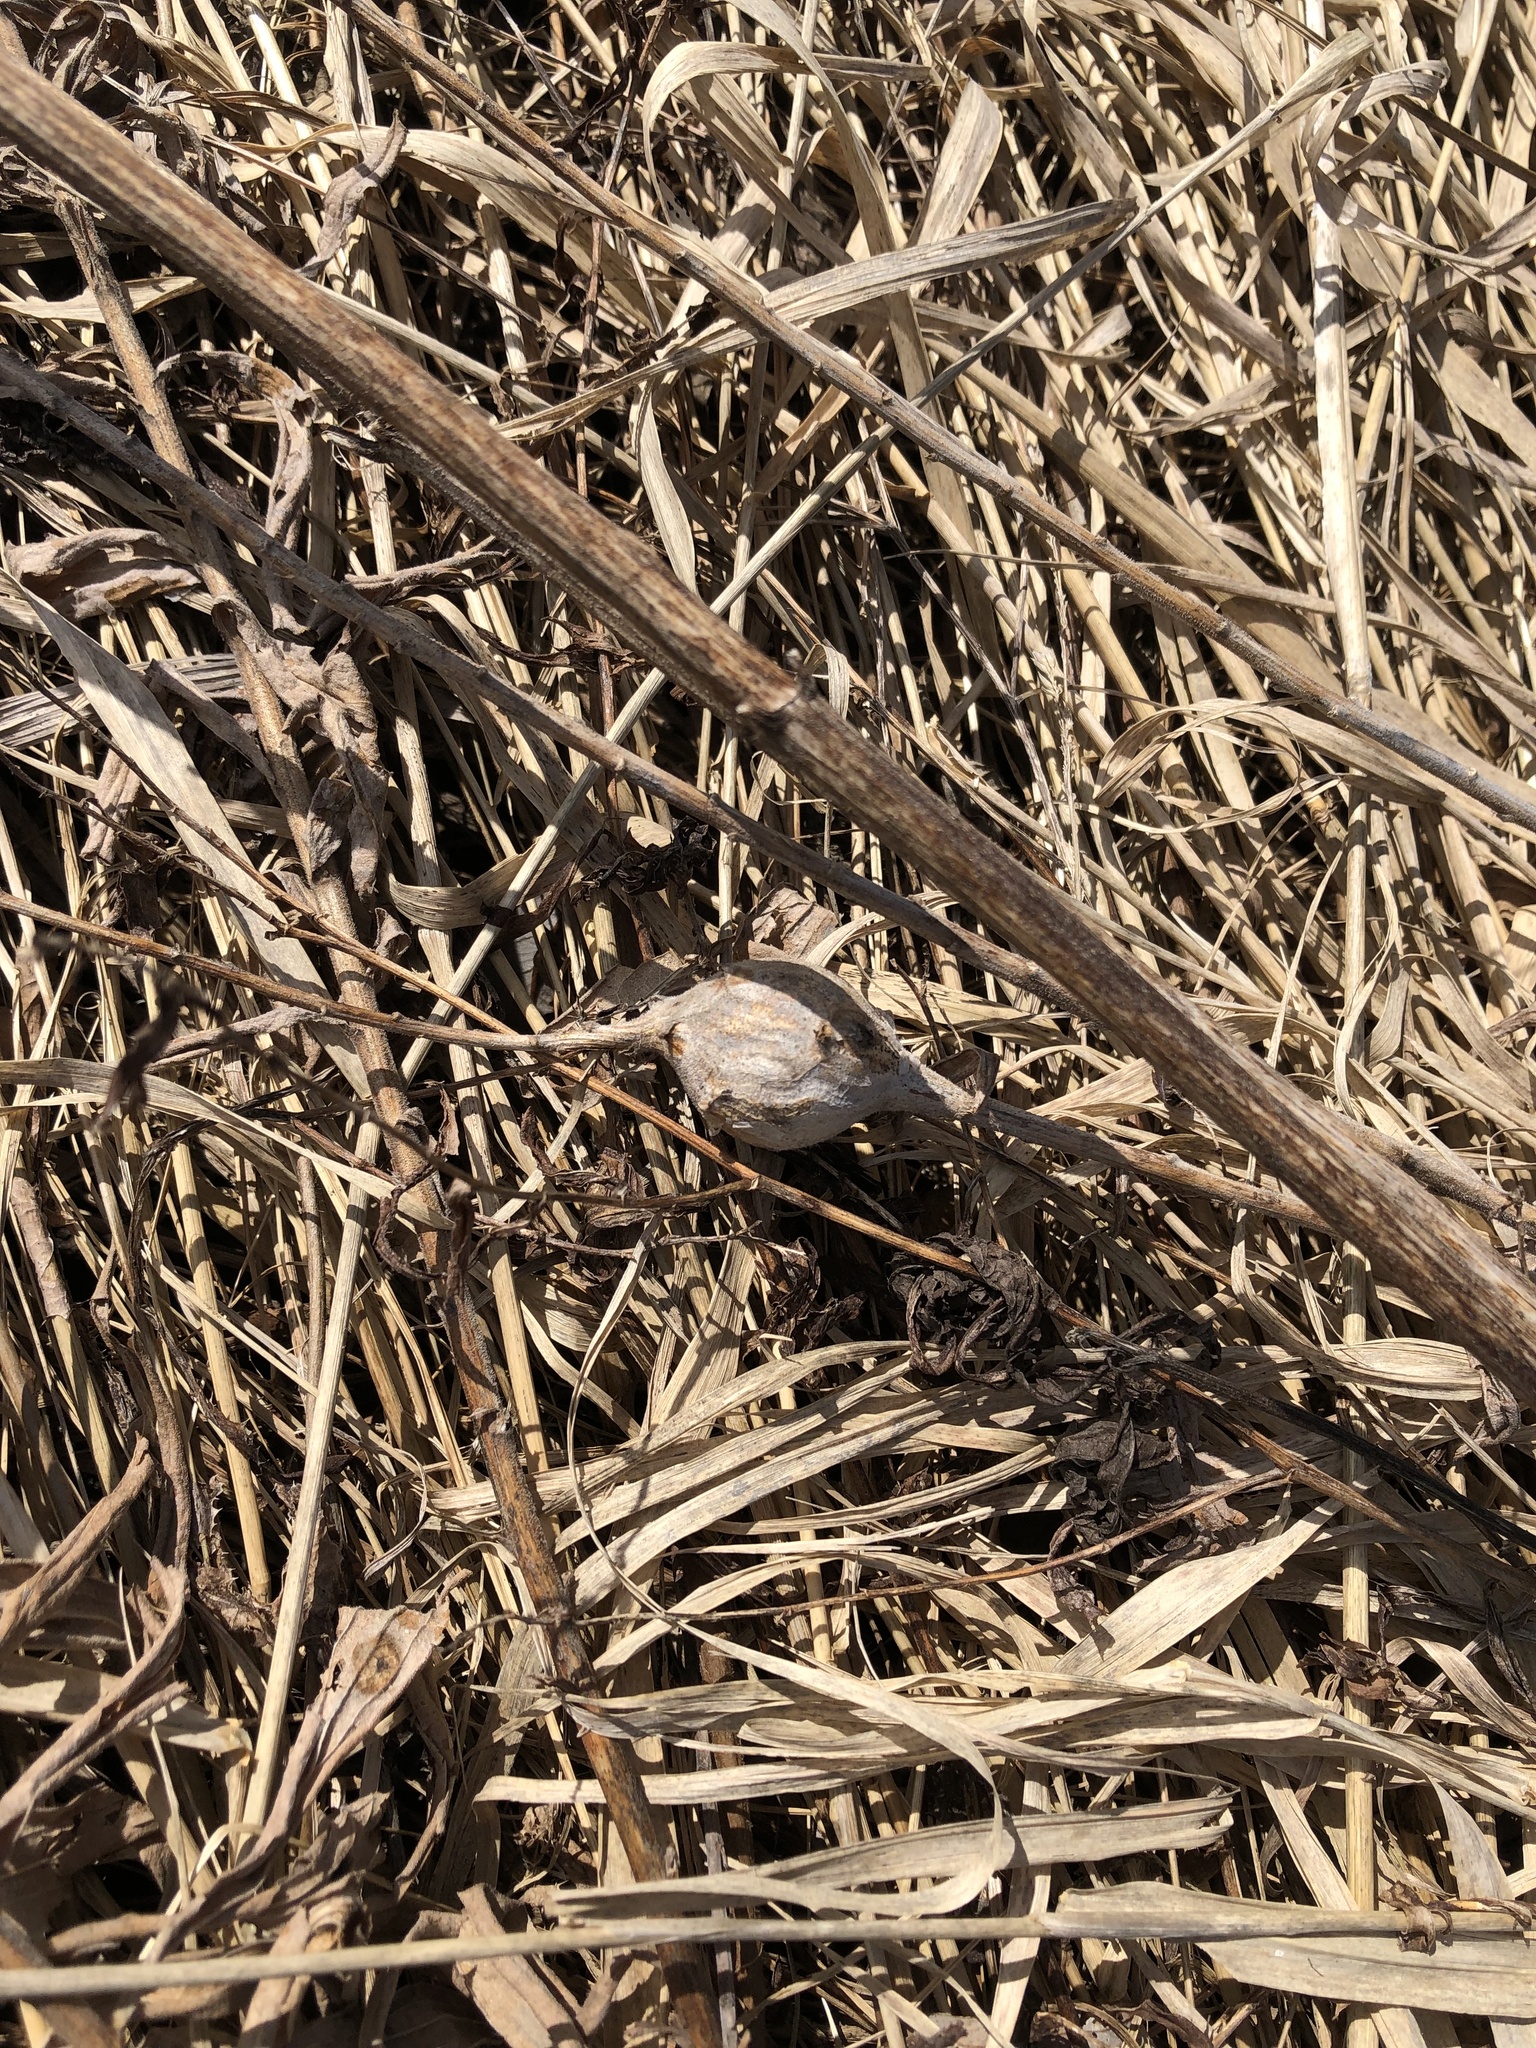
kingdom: Animalia
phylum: Arthropoda
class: Insecta
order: Diptera
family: Tephritidae
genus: Eurosta
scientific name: Eurosta solidaginis
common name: Goldenrod gall fly
